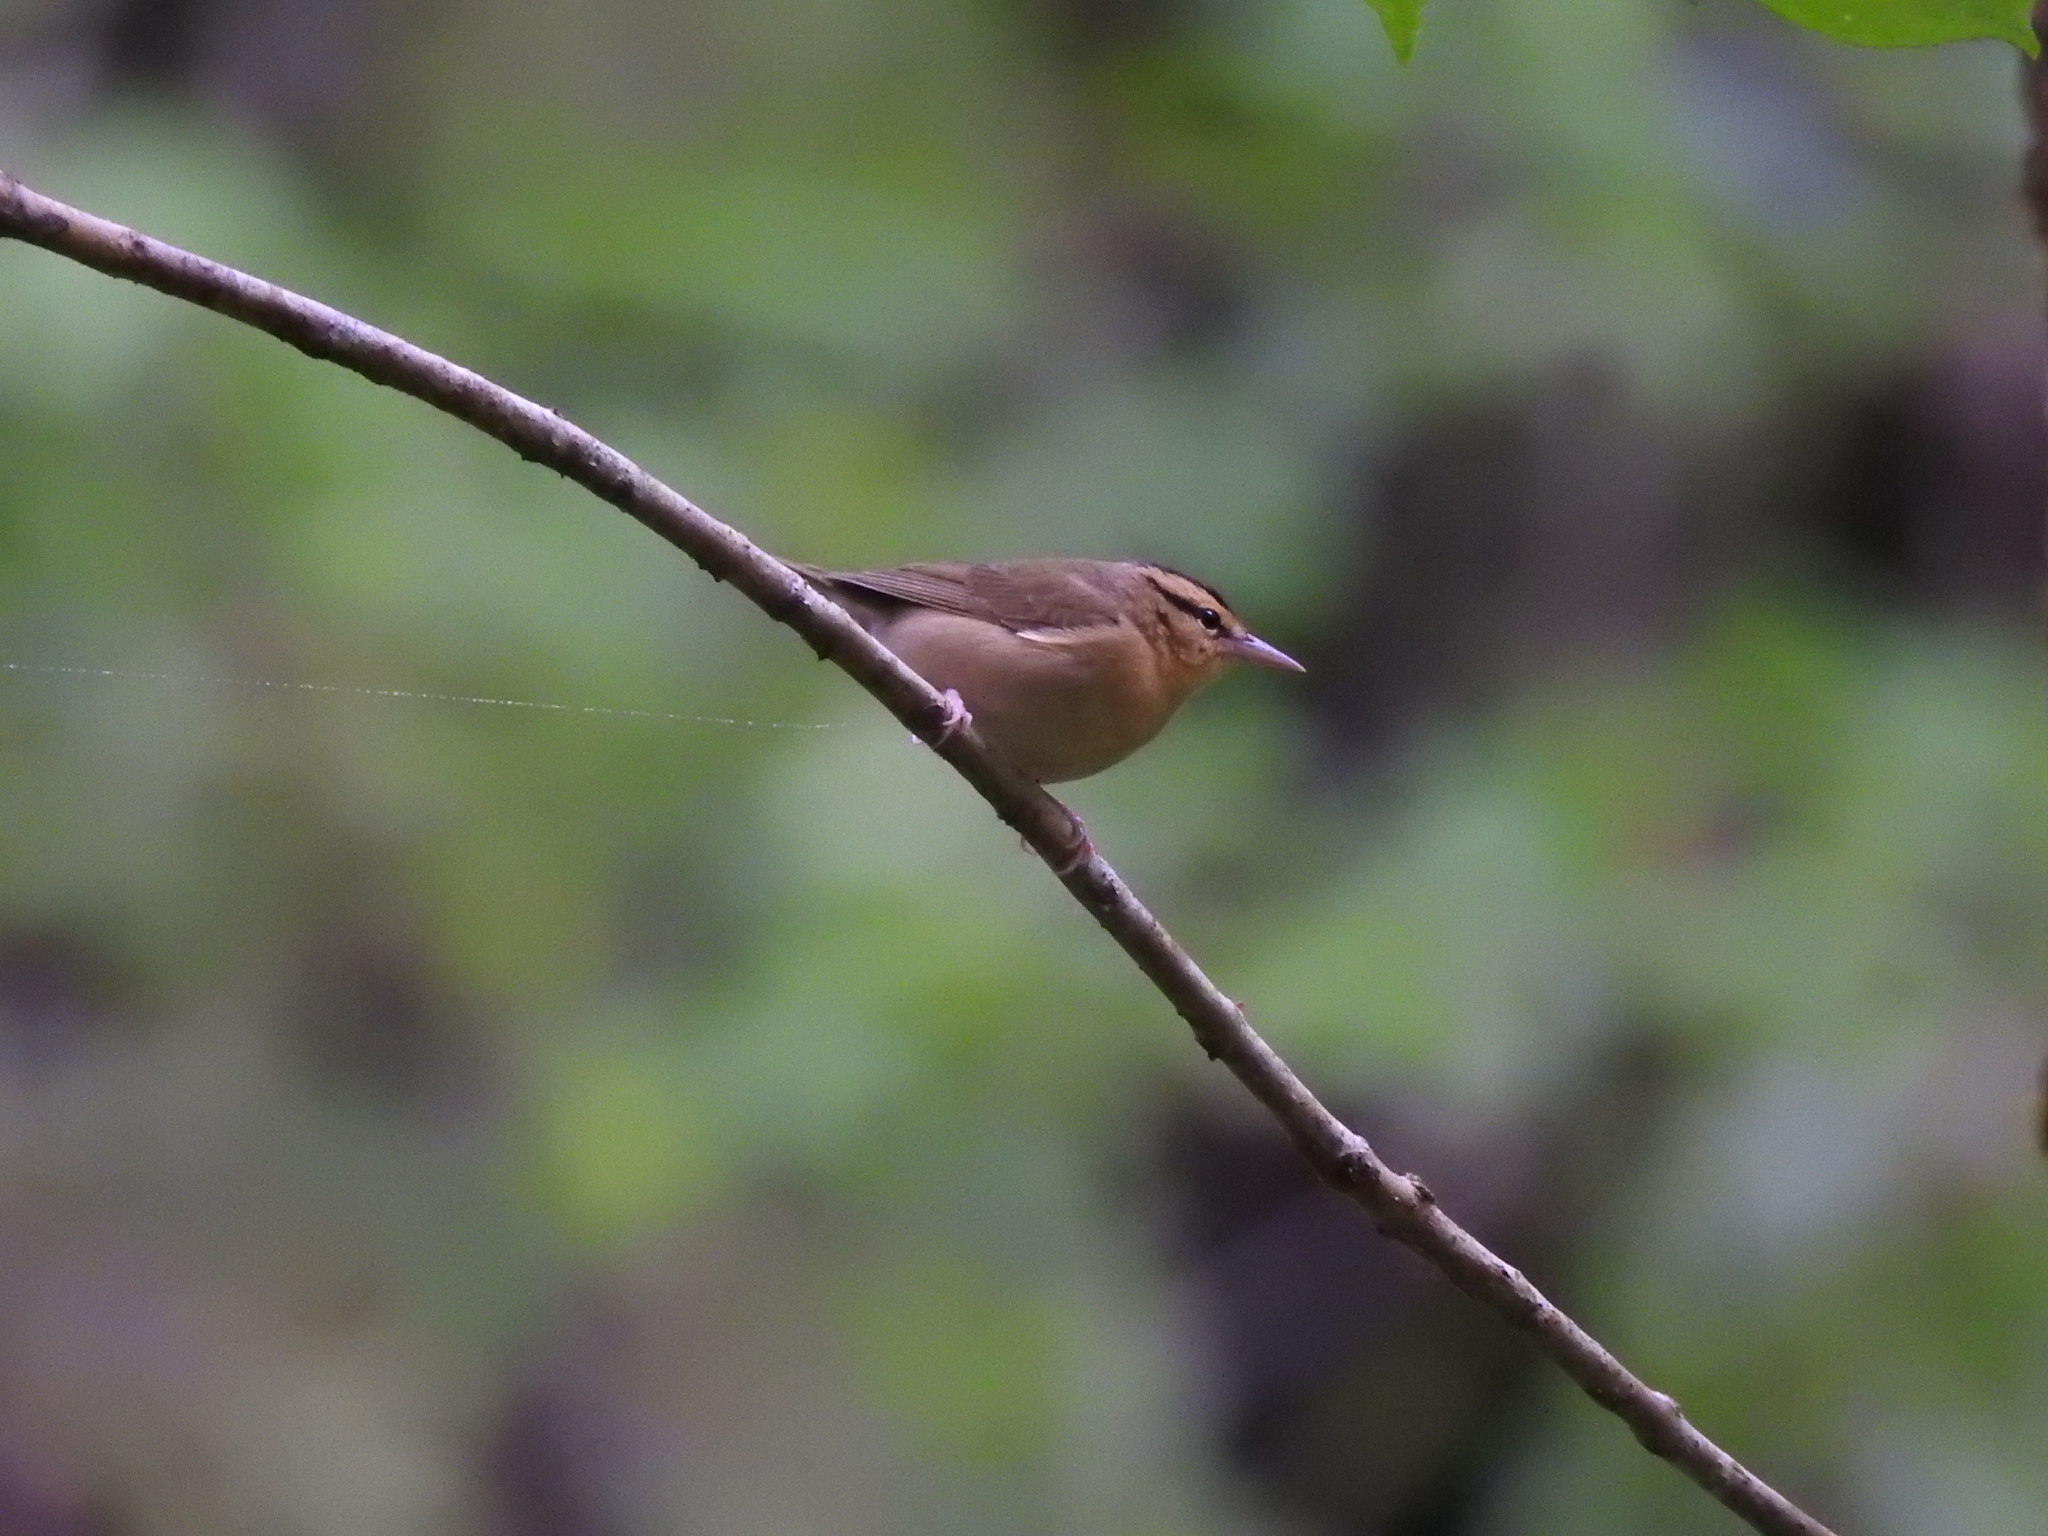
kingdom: Animalia
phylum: Chordata
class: Aves
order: Passeriformes
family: Parulidae
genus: Helmitheros
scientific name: Helmitheros vermivorum
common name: Worm-eating warbler
